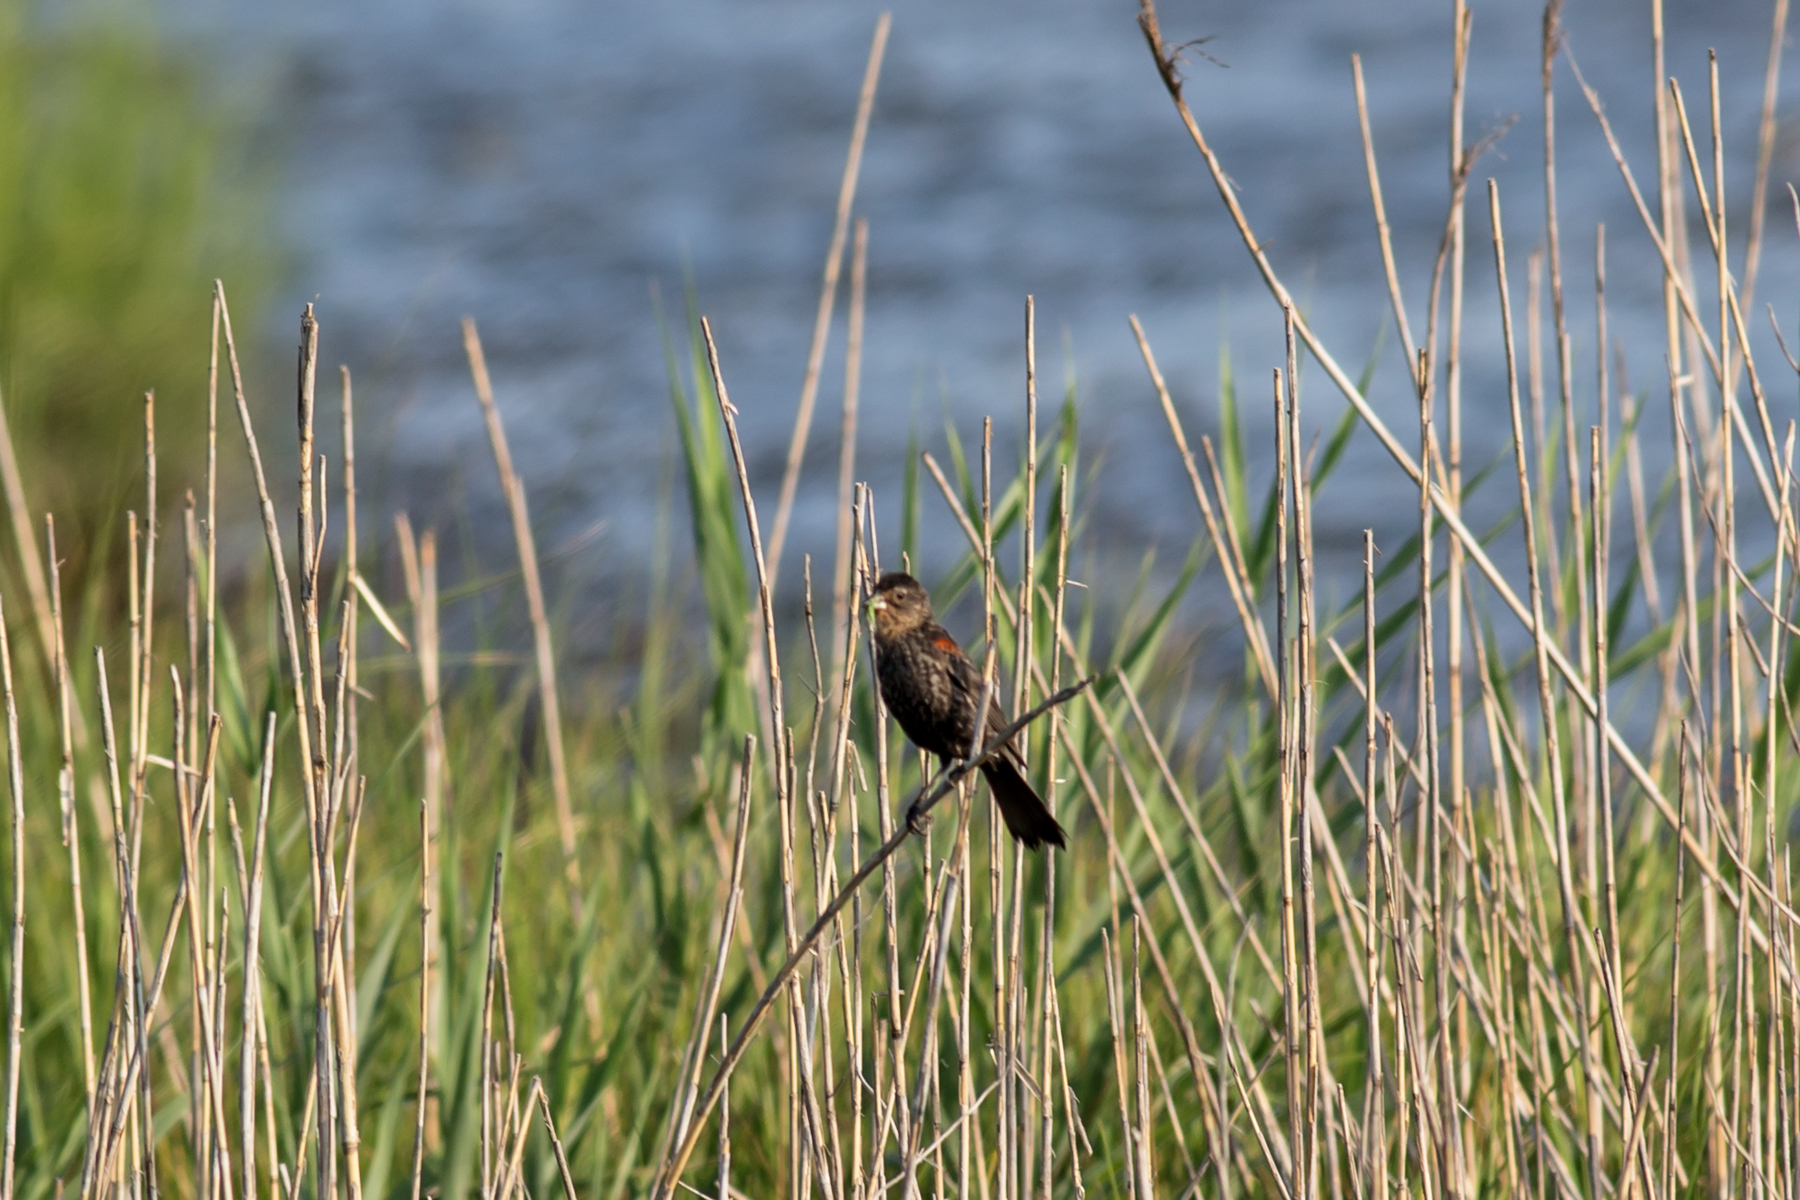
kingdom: Animalia
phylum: Chordata
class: Aves
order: Passeriformes
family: Icteridae
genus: Agelaius
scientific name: Agelaius phoeniceus
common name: Red-winged blackbird
